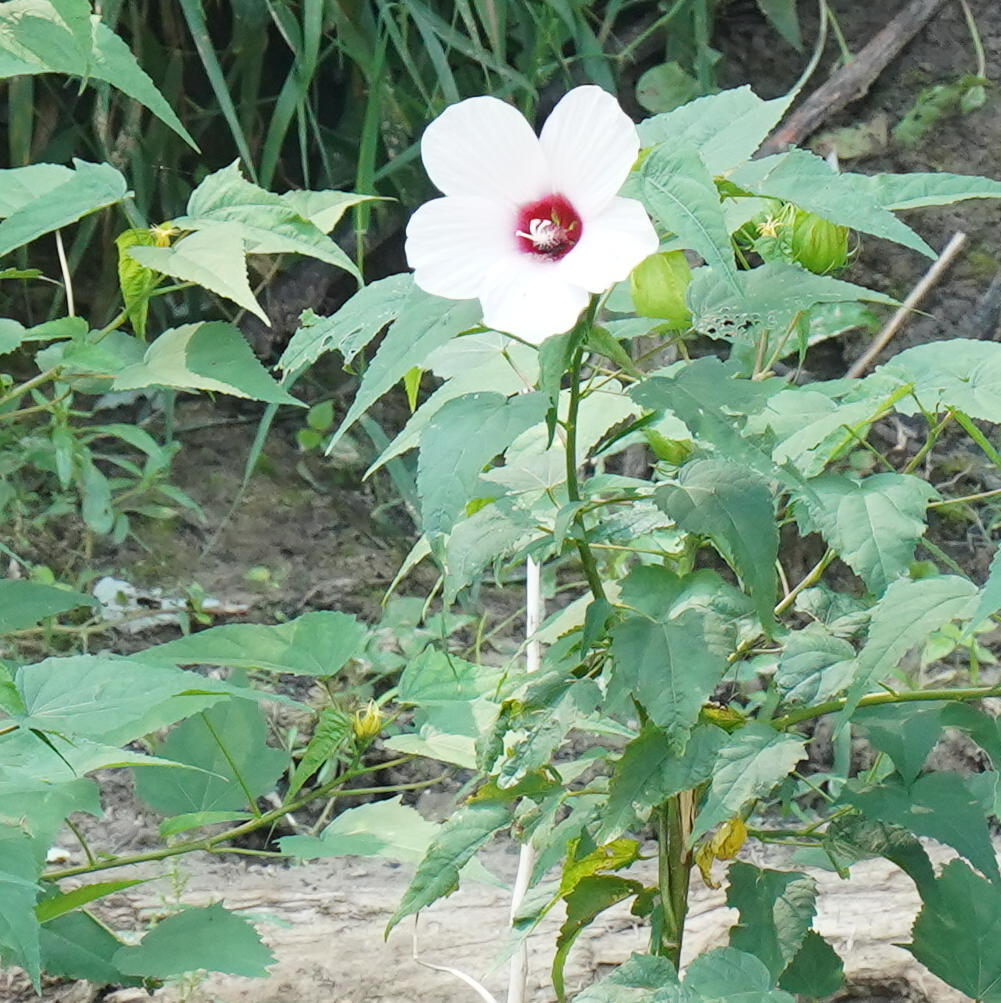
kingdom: Plantae
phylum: Tracheophyta
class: Magnoliopsida
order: Malvales
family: Malvaceae
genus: Hibiscus
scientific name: Hibiscus laevis
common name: Scarlet rose-mallow
